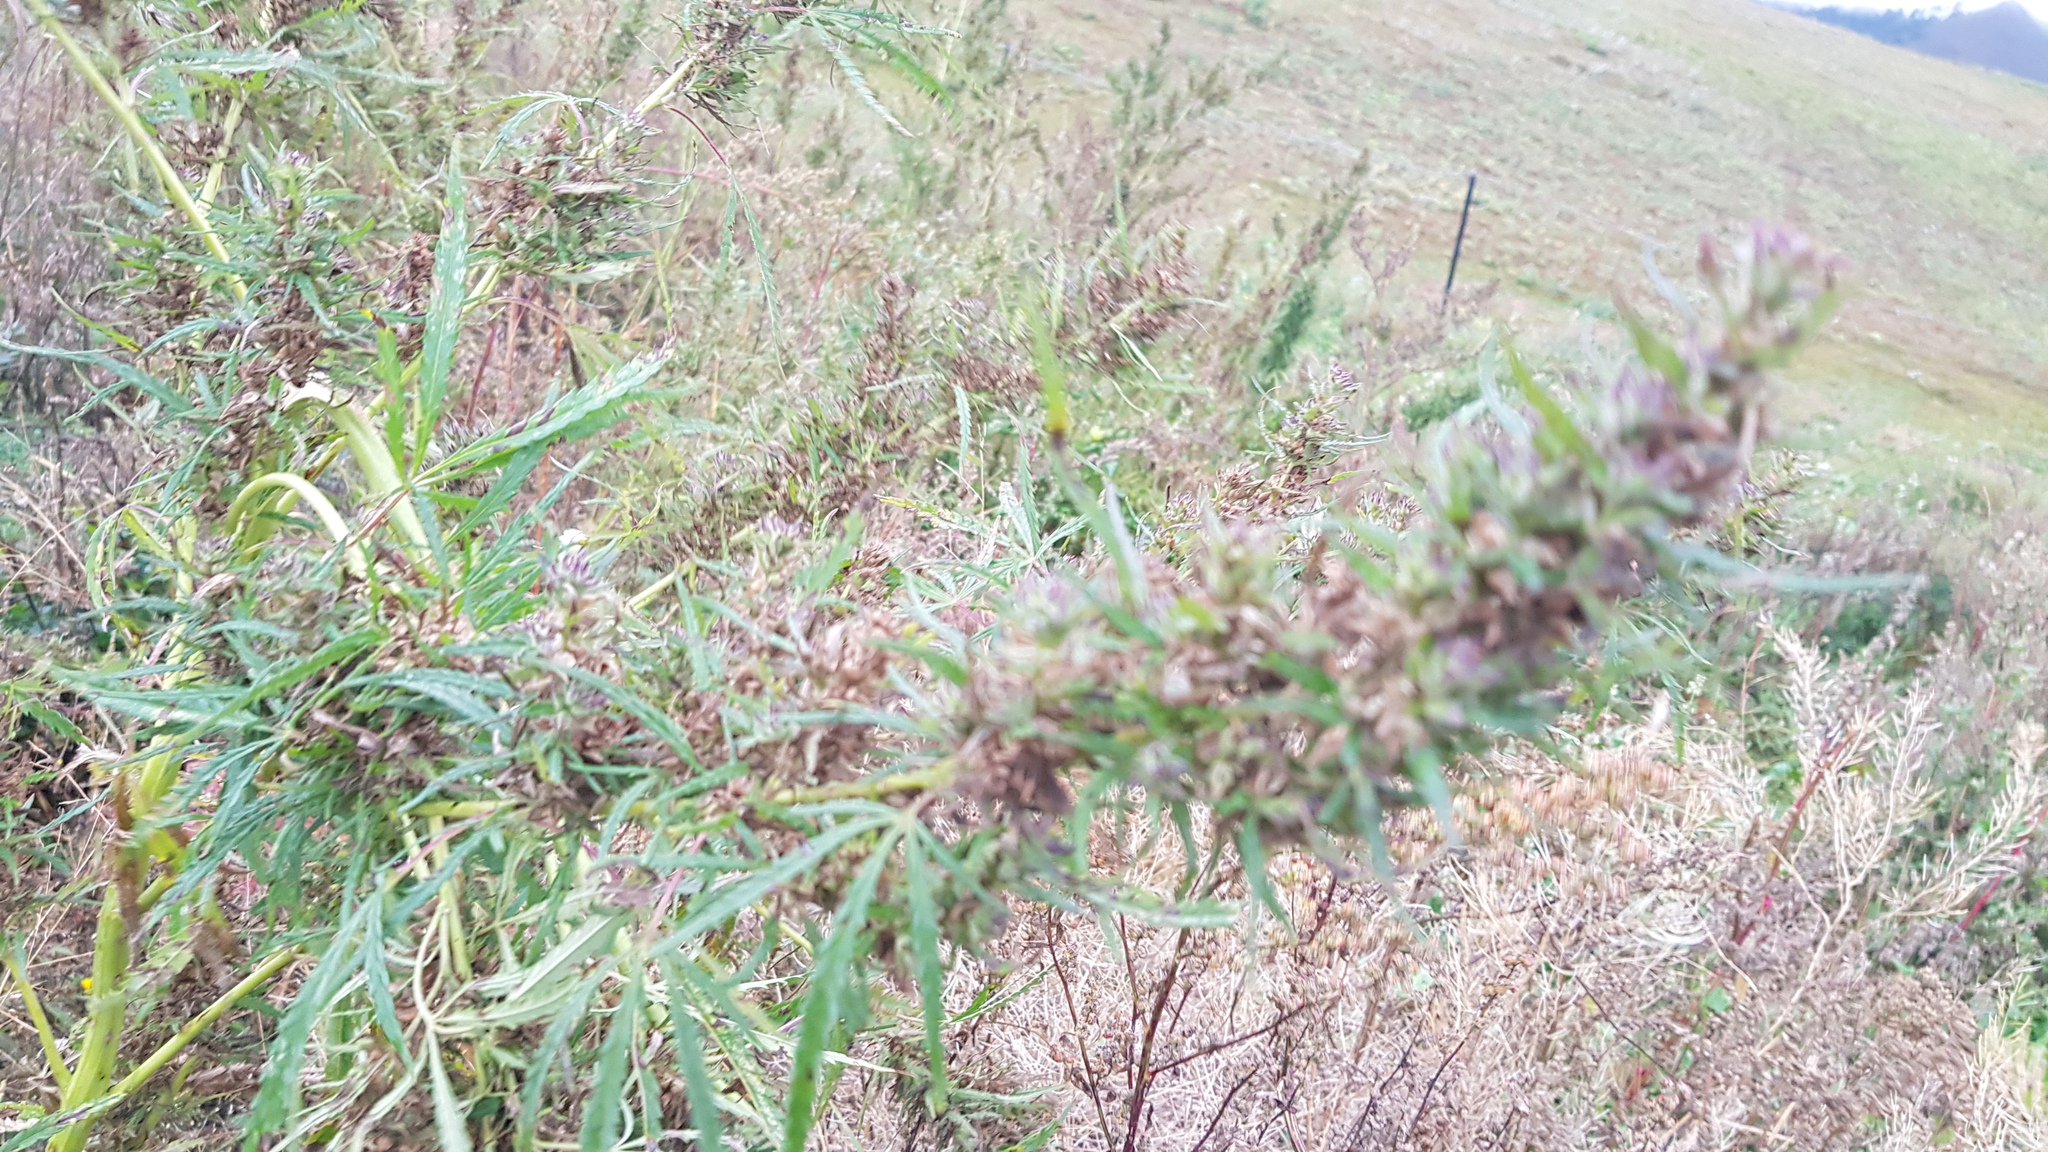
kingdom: Plantae
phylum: Tracheophyta
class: Magnoliopsida
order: Rosales
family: Cannabaceae
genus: Cannabis
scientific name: Cannabis sativa
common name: Hemp
